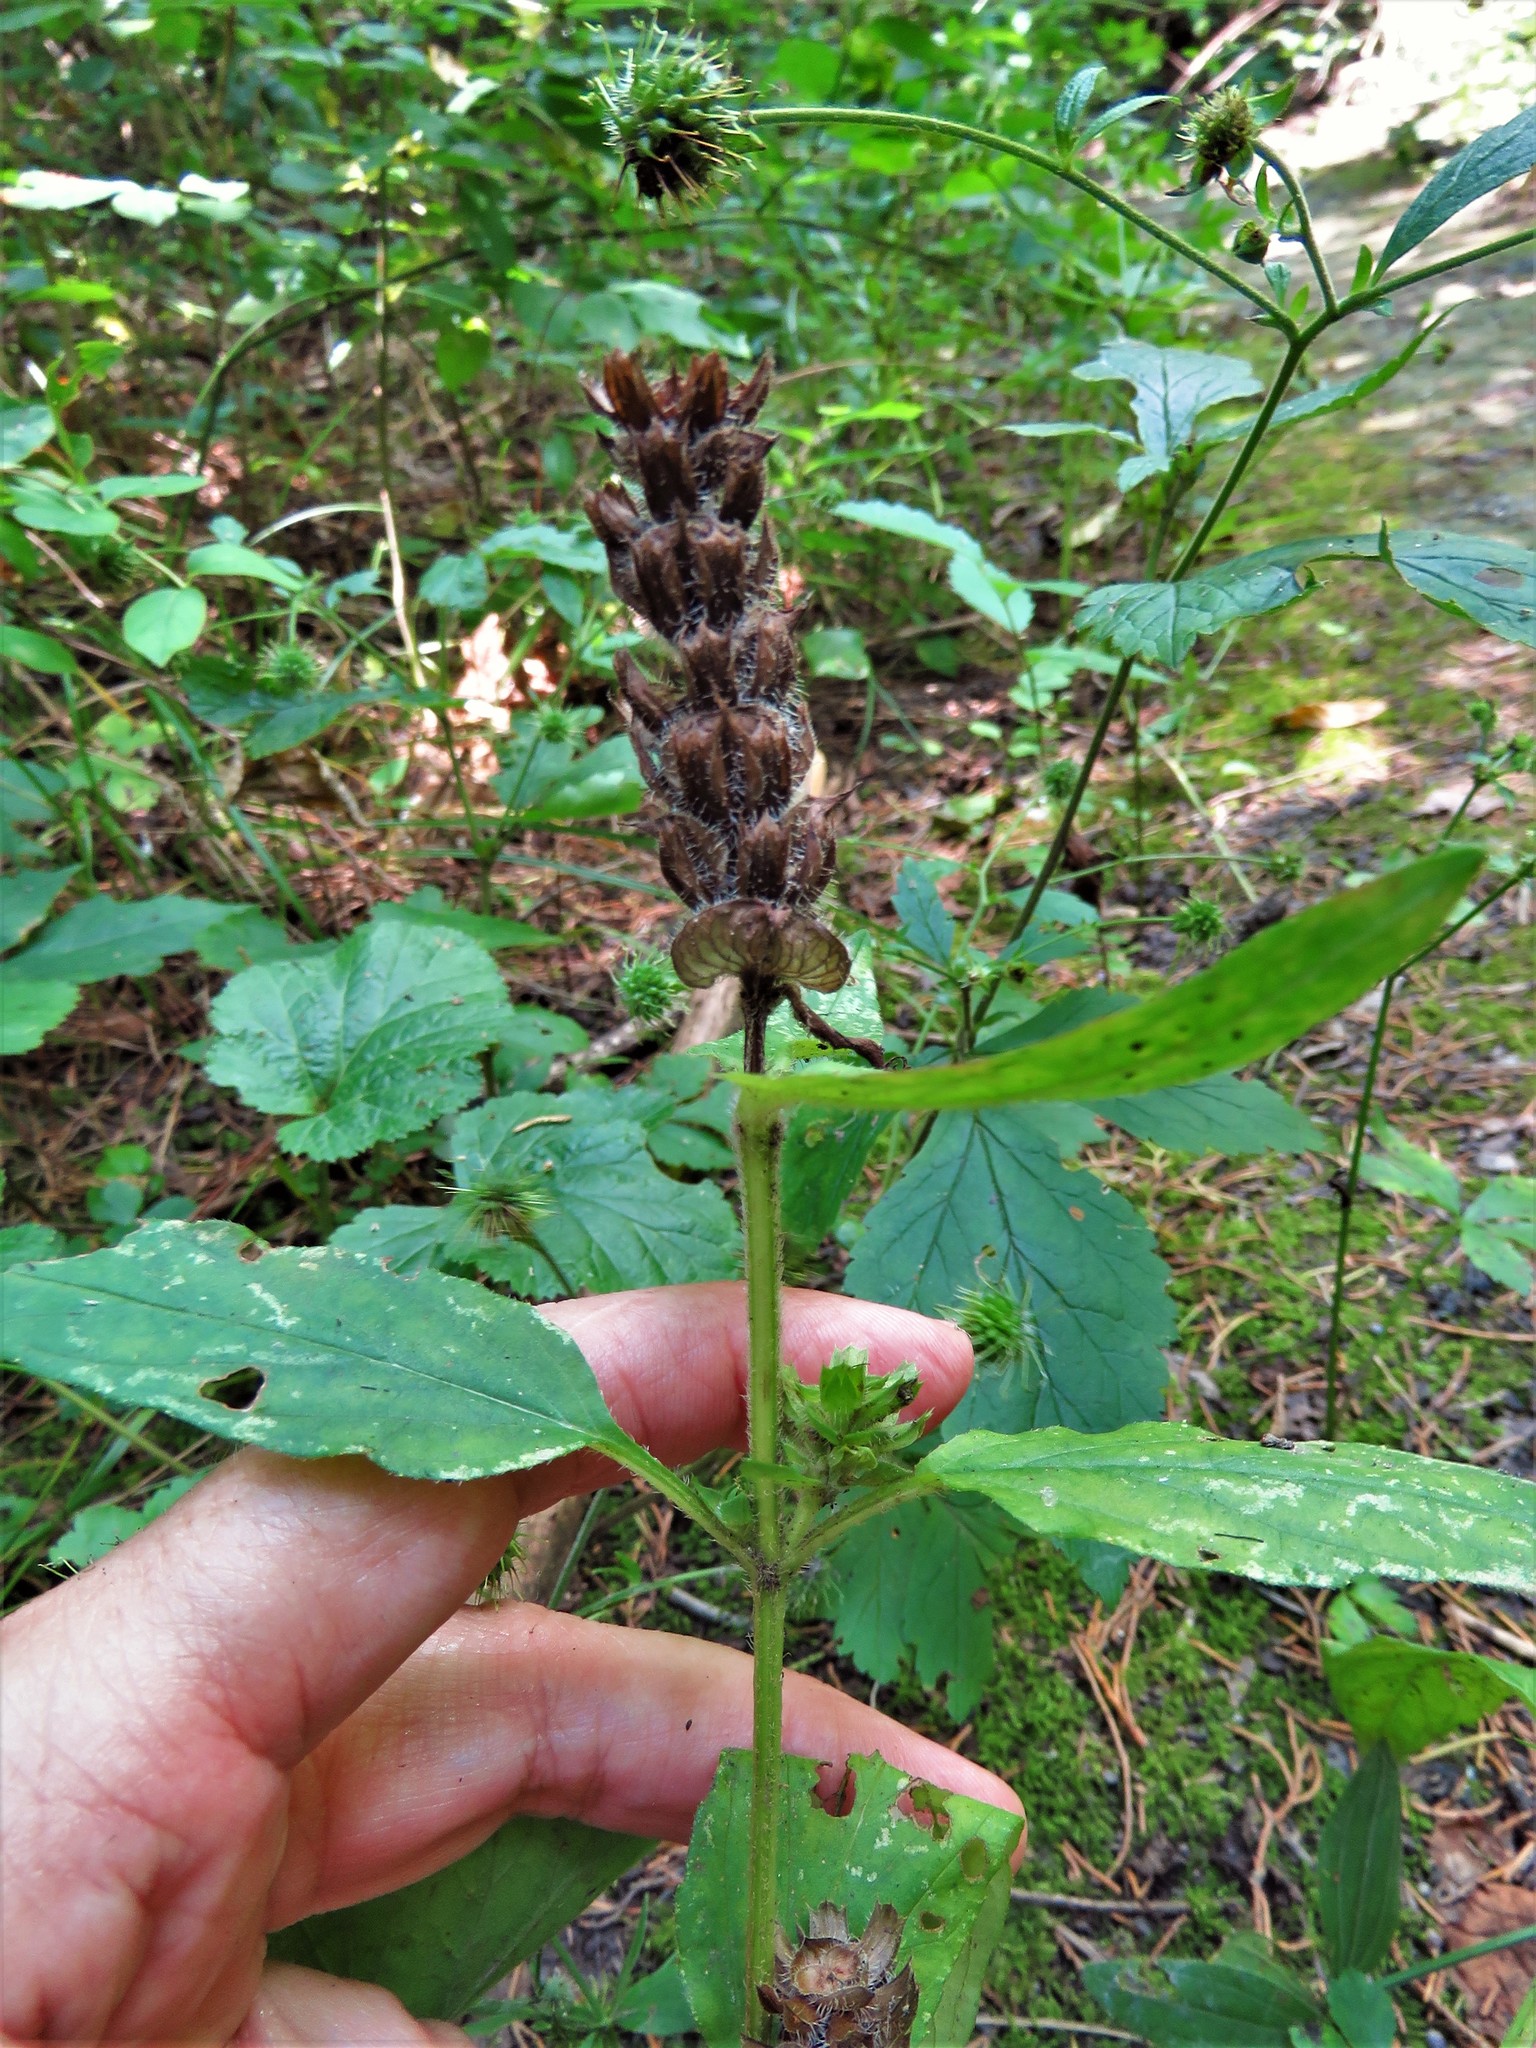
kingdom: Plantae
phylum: Tracheophyta
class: Magnoliopsida
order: Lamiales
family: Lamiaceae
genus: Prunella
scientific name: Prunella vulgaris
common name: Heal-all
